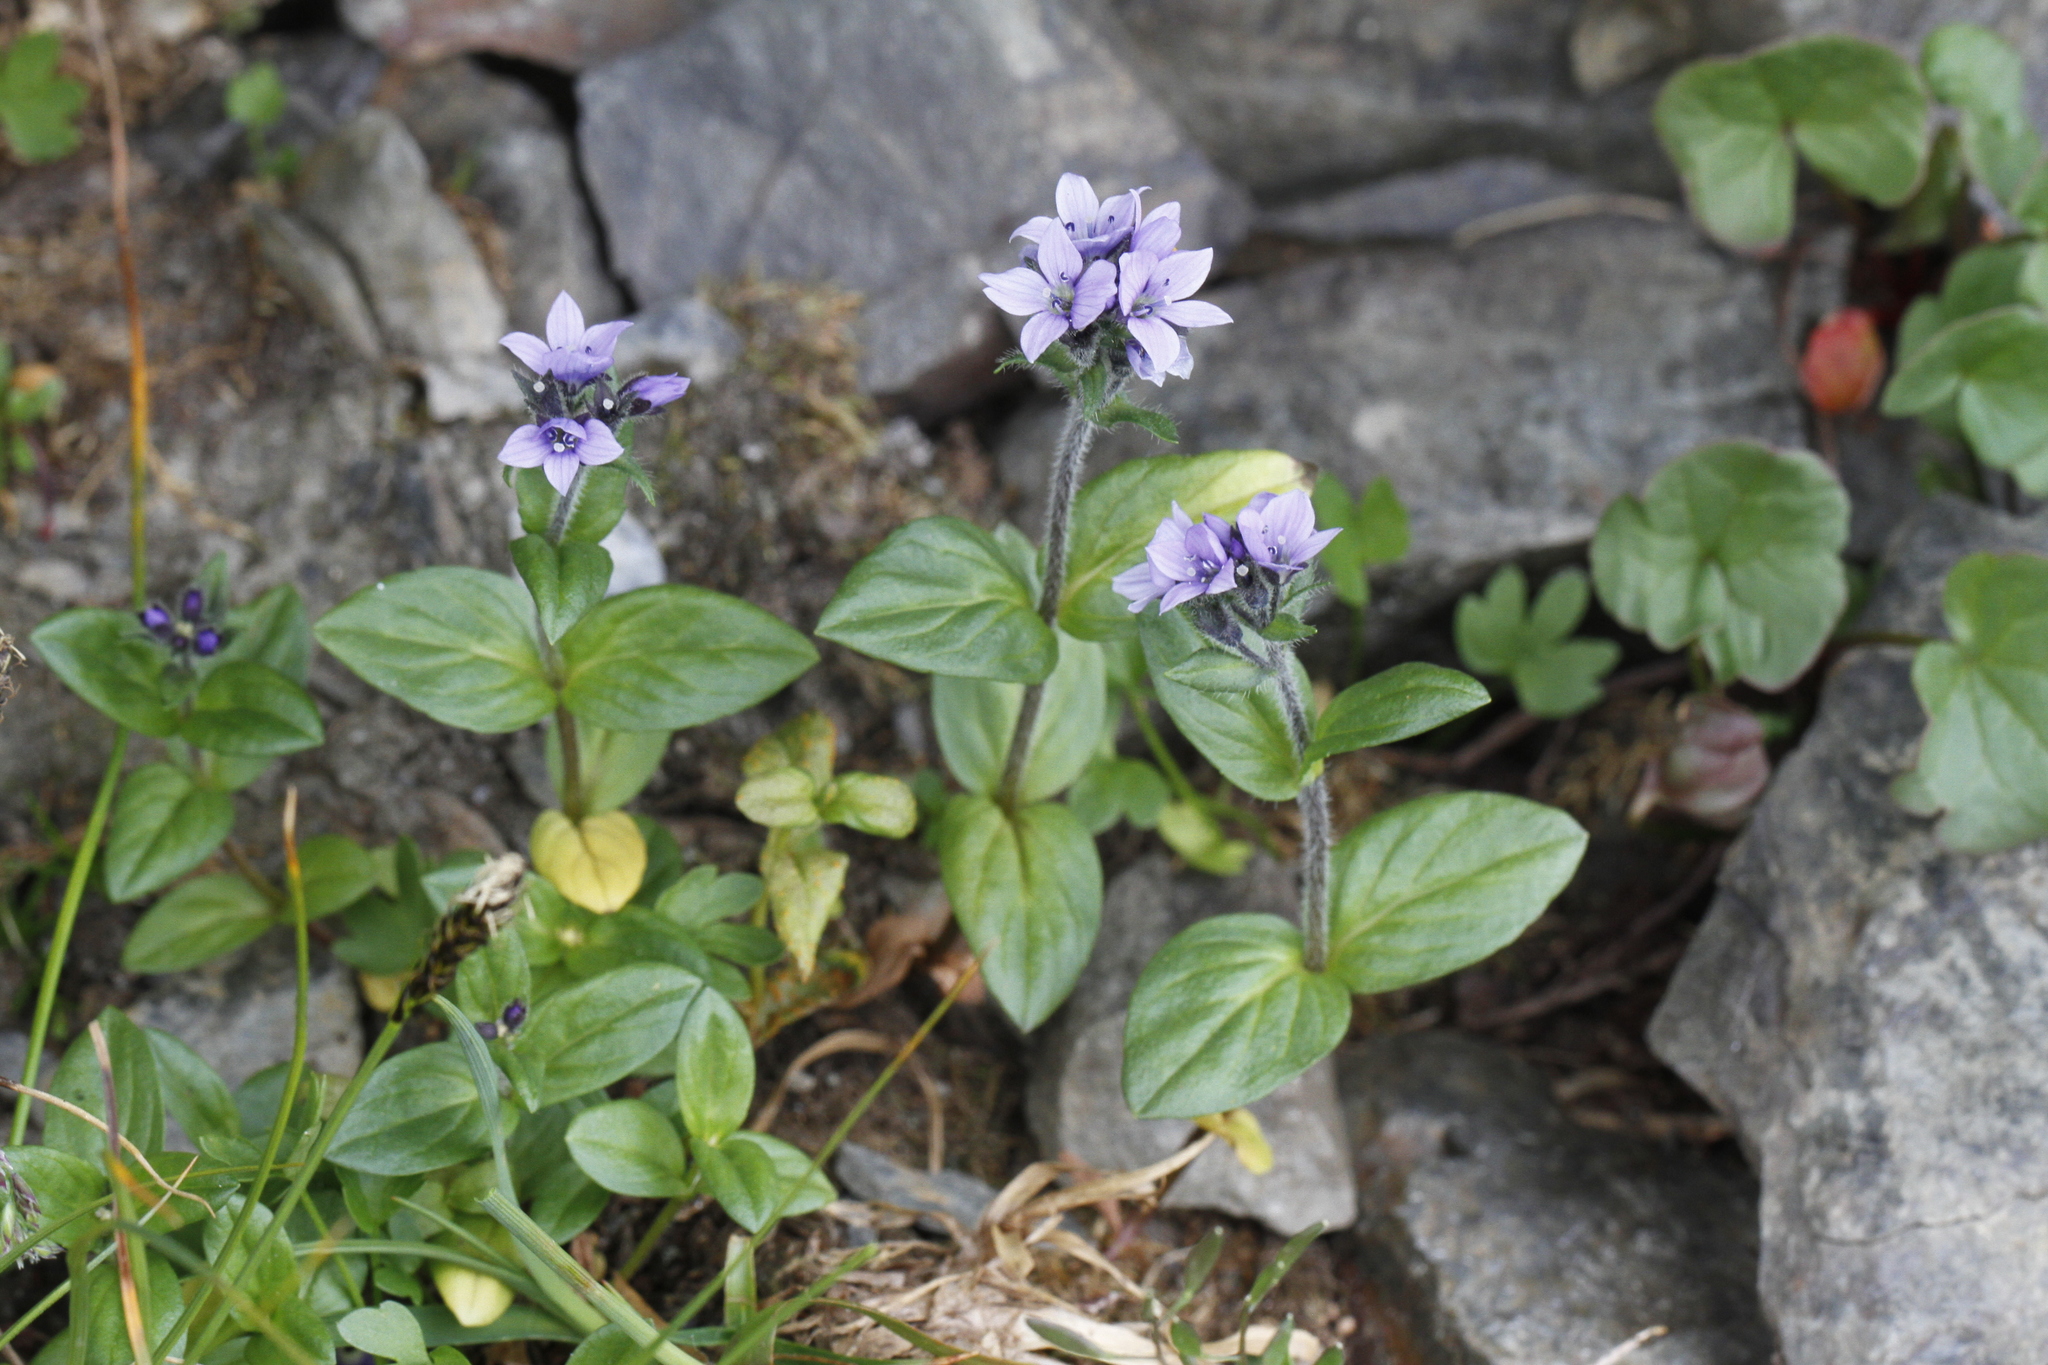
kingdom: Plantae
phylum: Tracheophyta
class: Magnoliopsida
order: Lamiales
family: Plantaginaceae
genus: Veronica
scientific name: Veronica wormskjoldii
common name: American alpine speedwell
